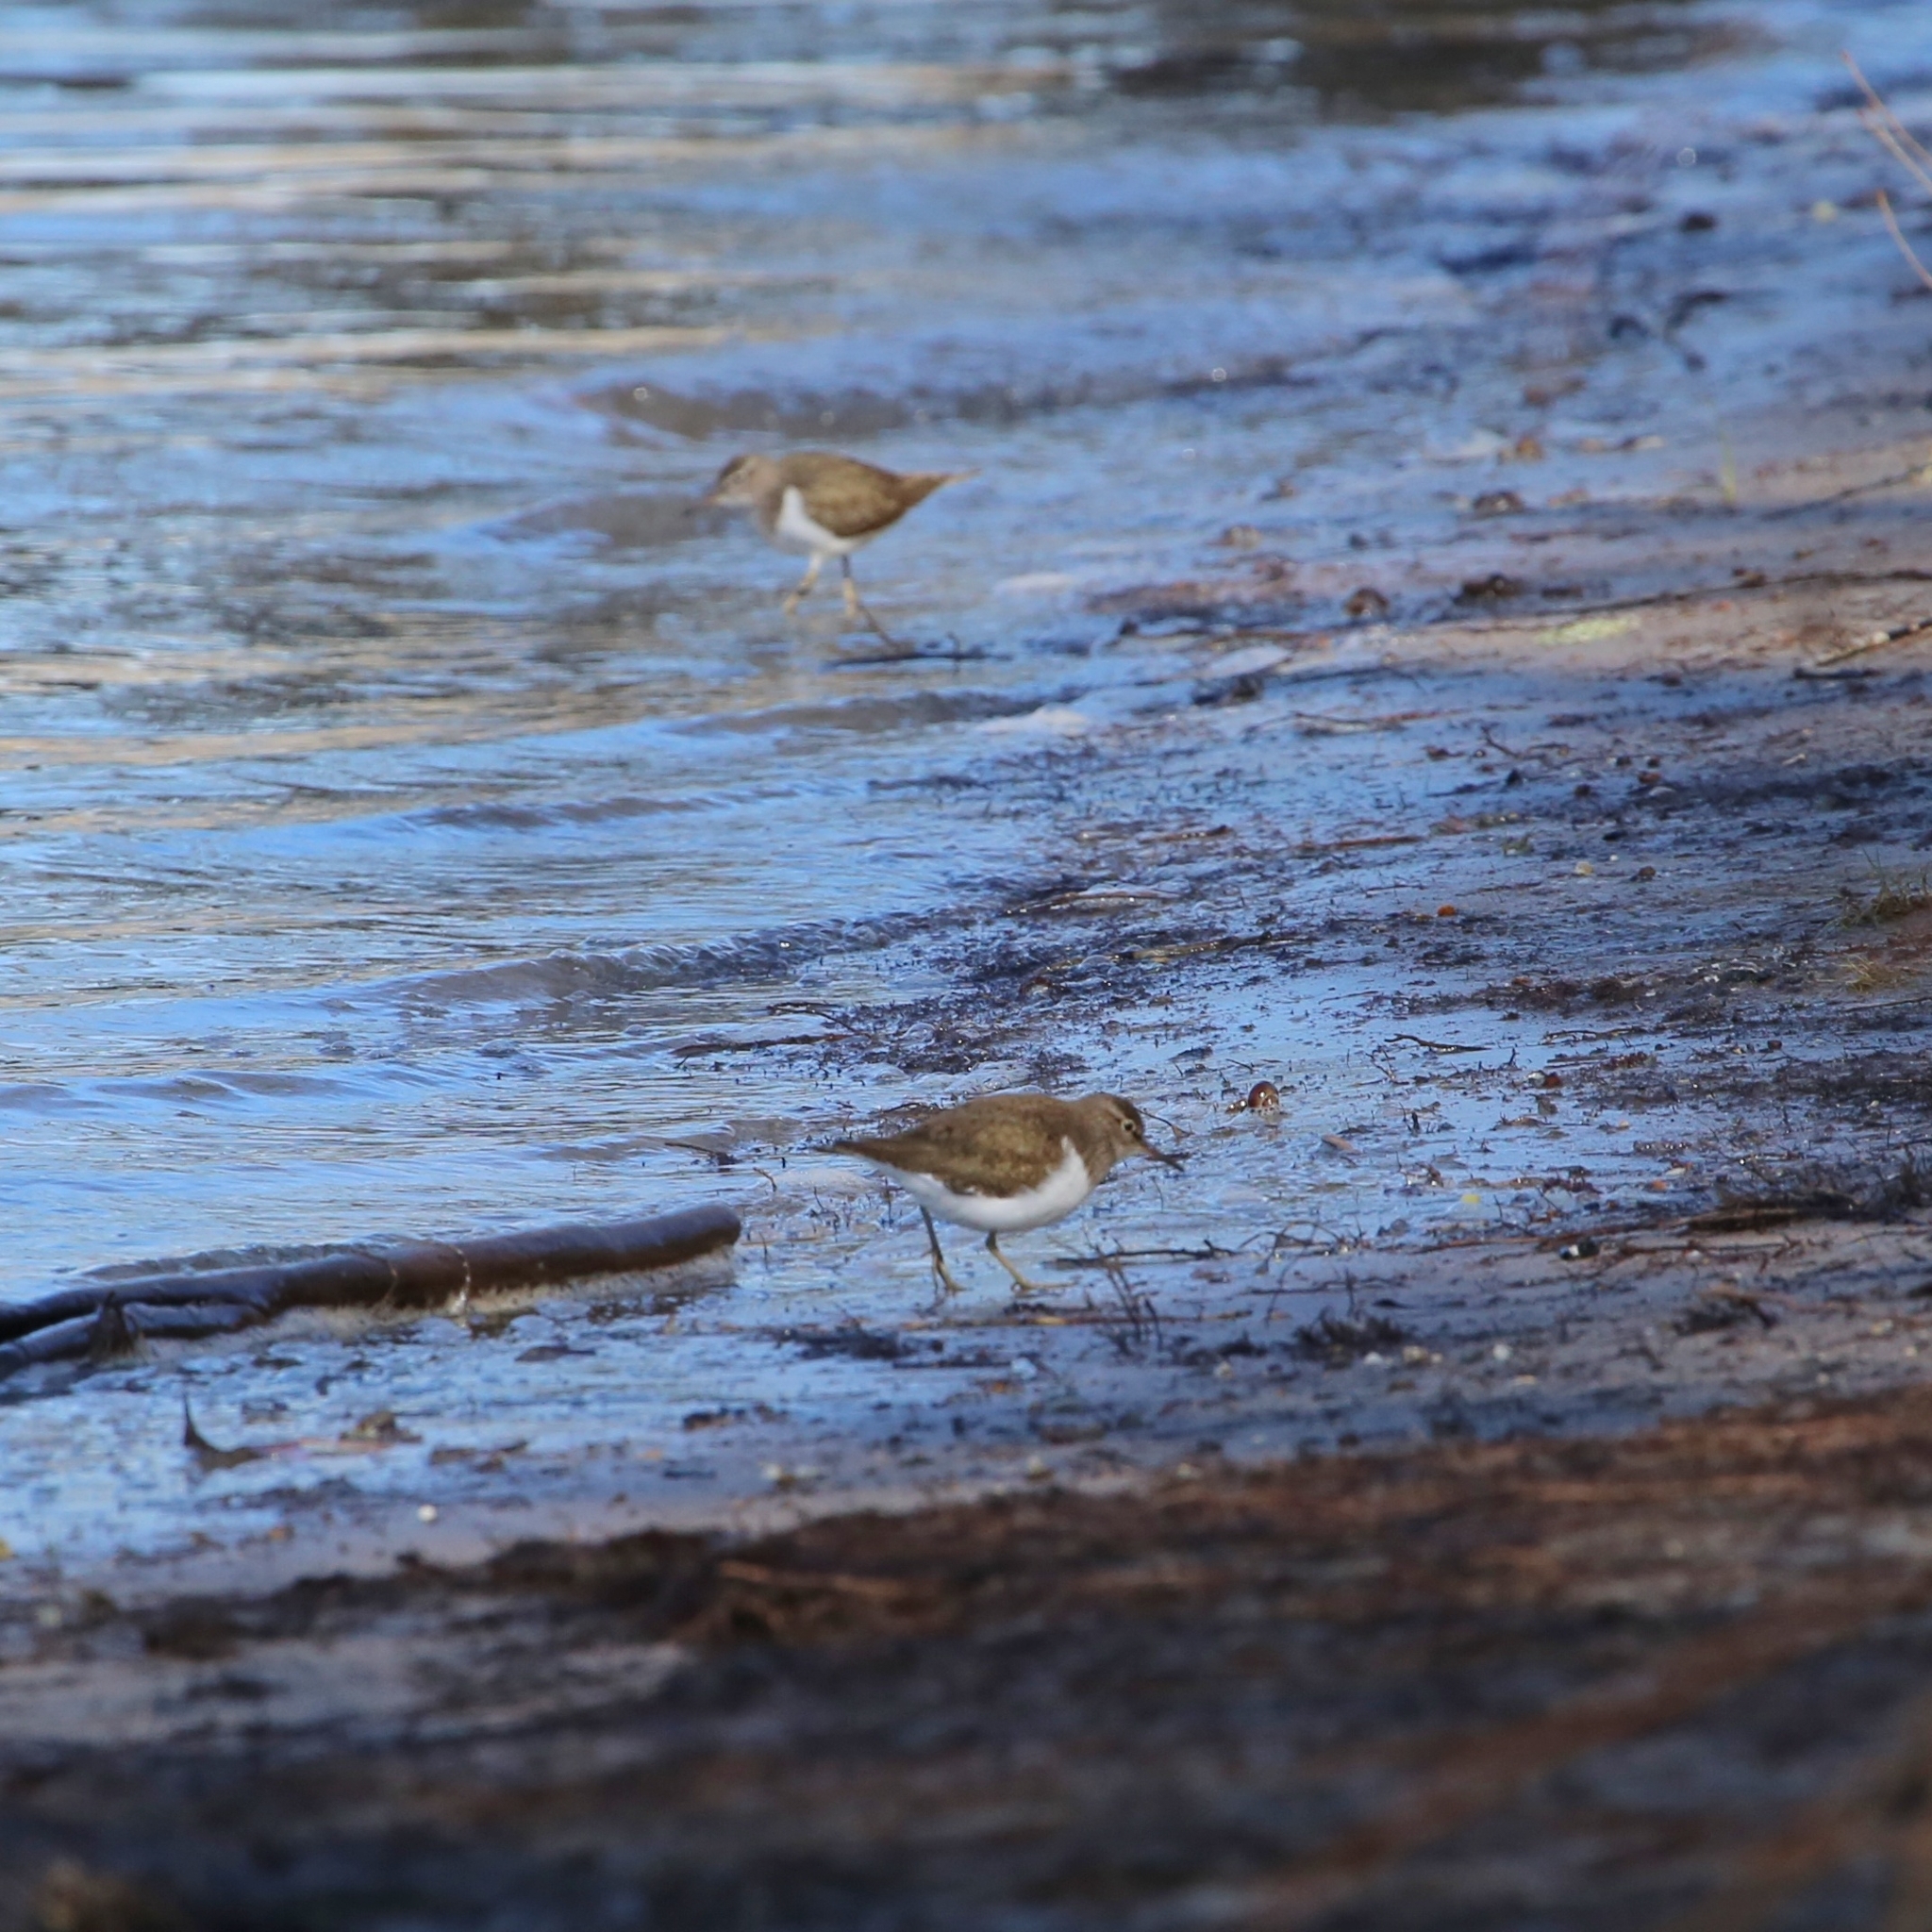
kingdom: Animalia
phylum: Chordata
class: Aves
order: Charadriiformes
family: Scolopacidae
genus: Actitis
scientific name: Actitis hypoleucos
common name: Common sandpiper
